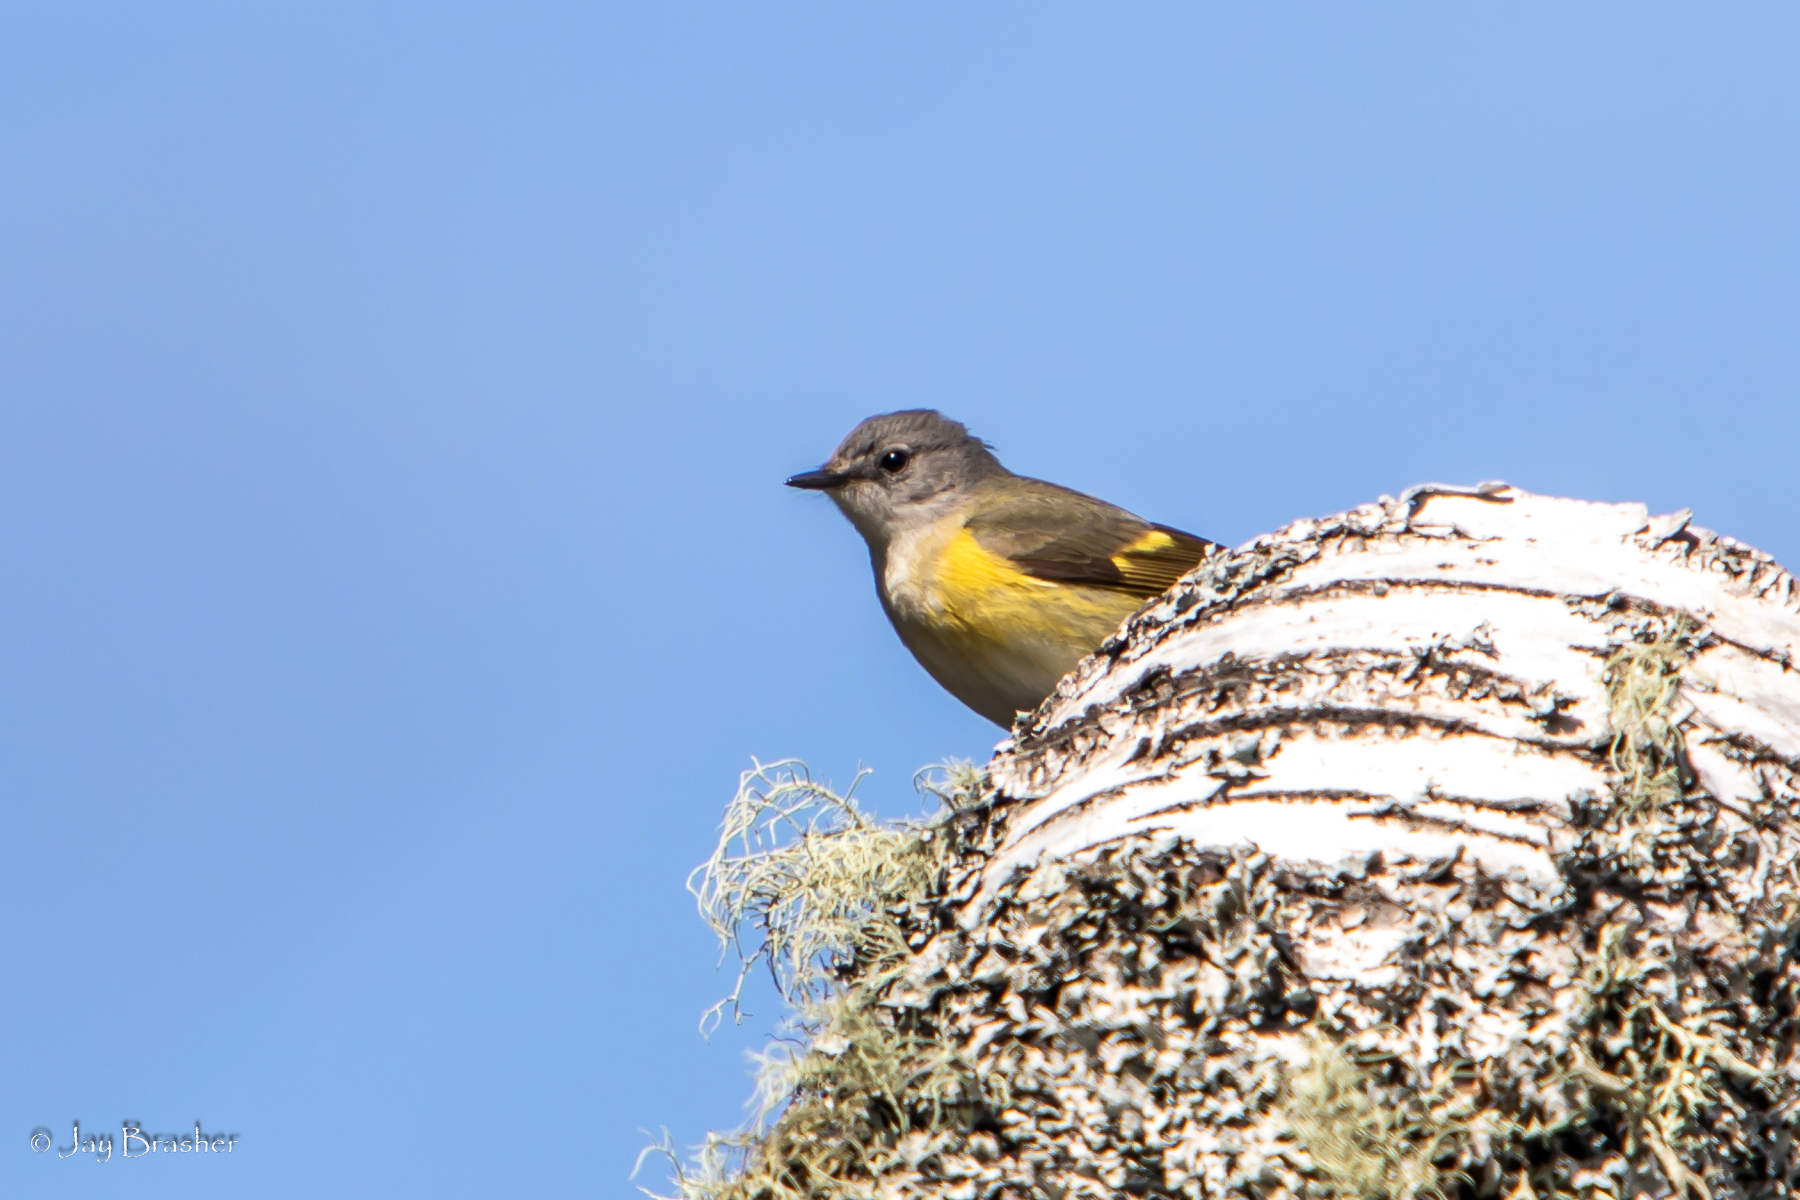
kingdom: Animalia
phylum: Chordata
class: Aves
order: Passeriformes
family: Parulidae
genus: Setophaga
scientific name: Setophaga ruticilla
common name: American redstart
